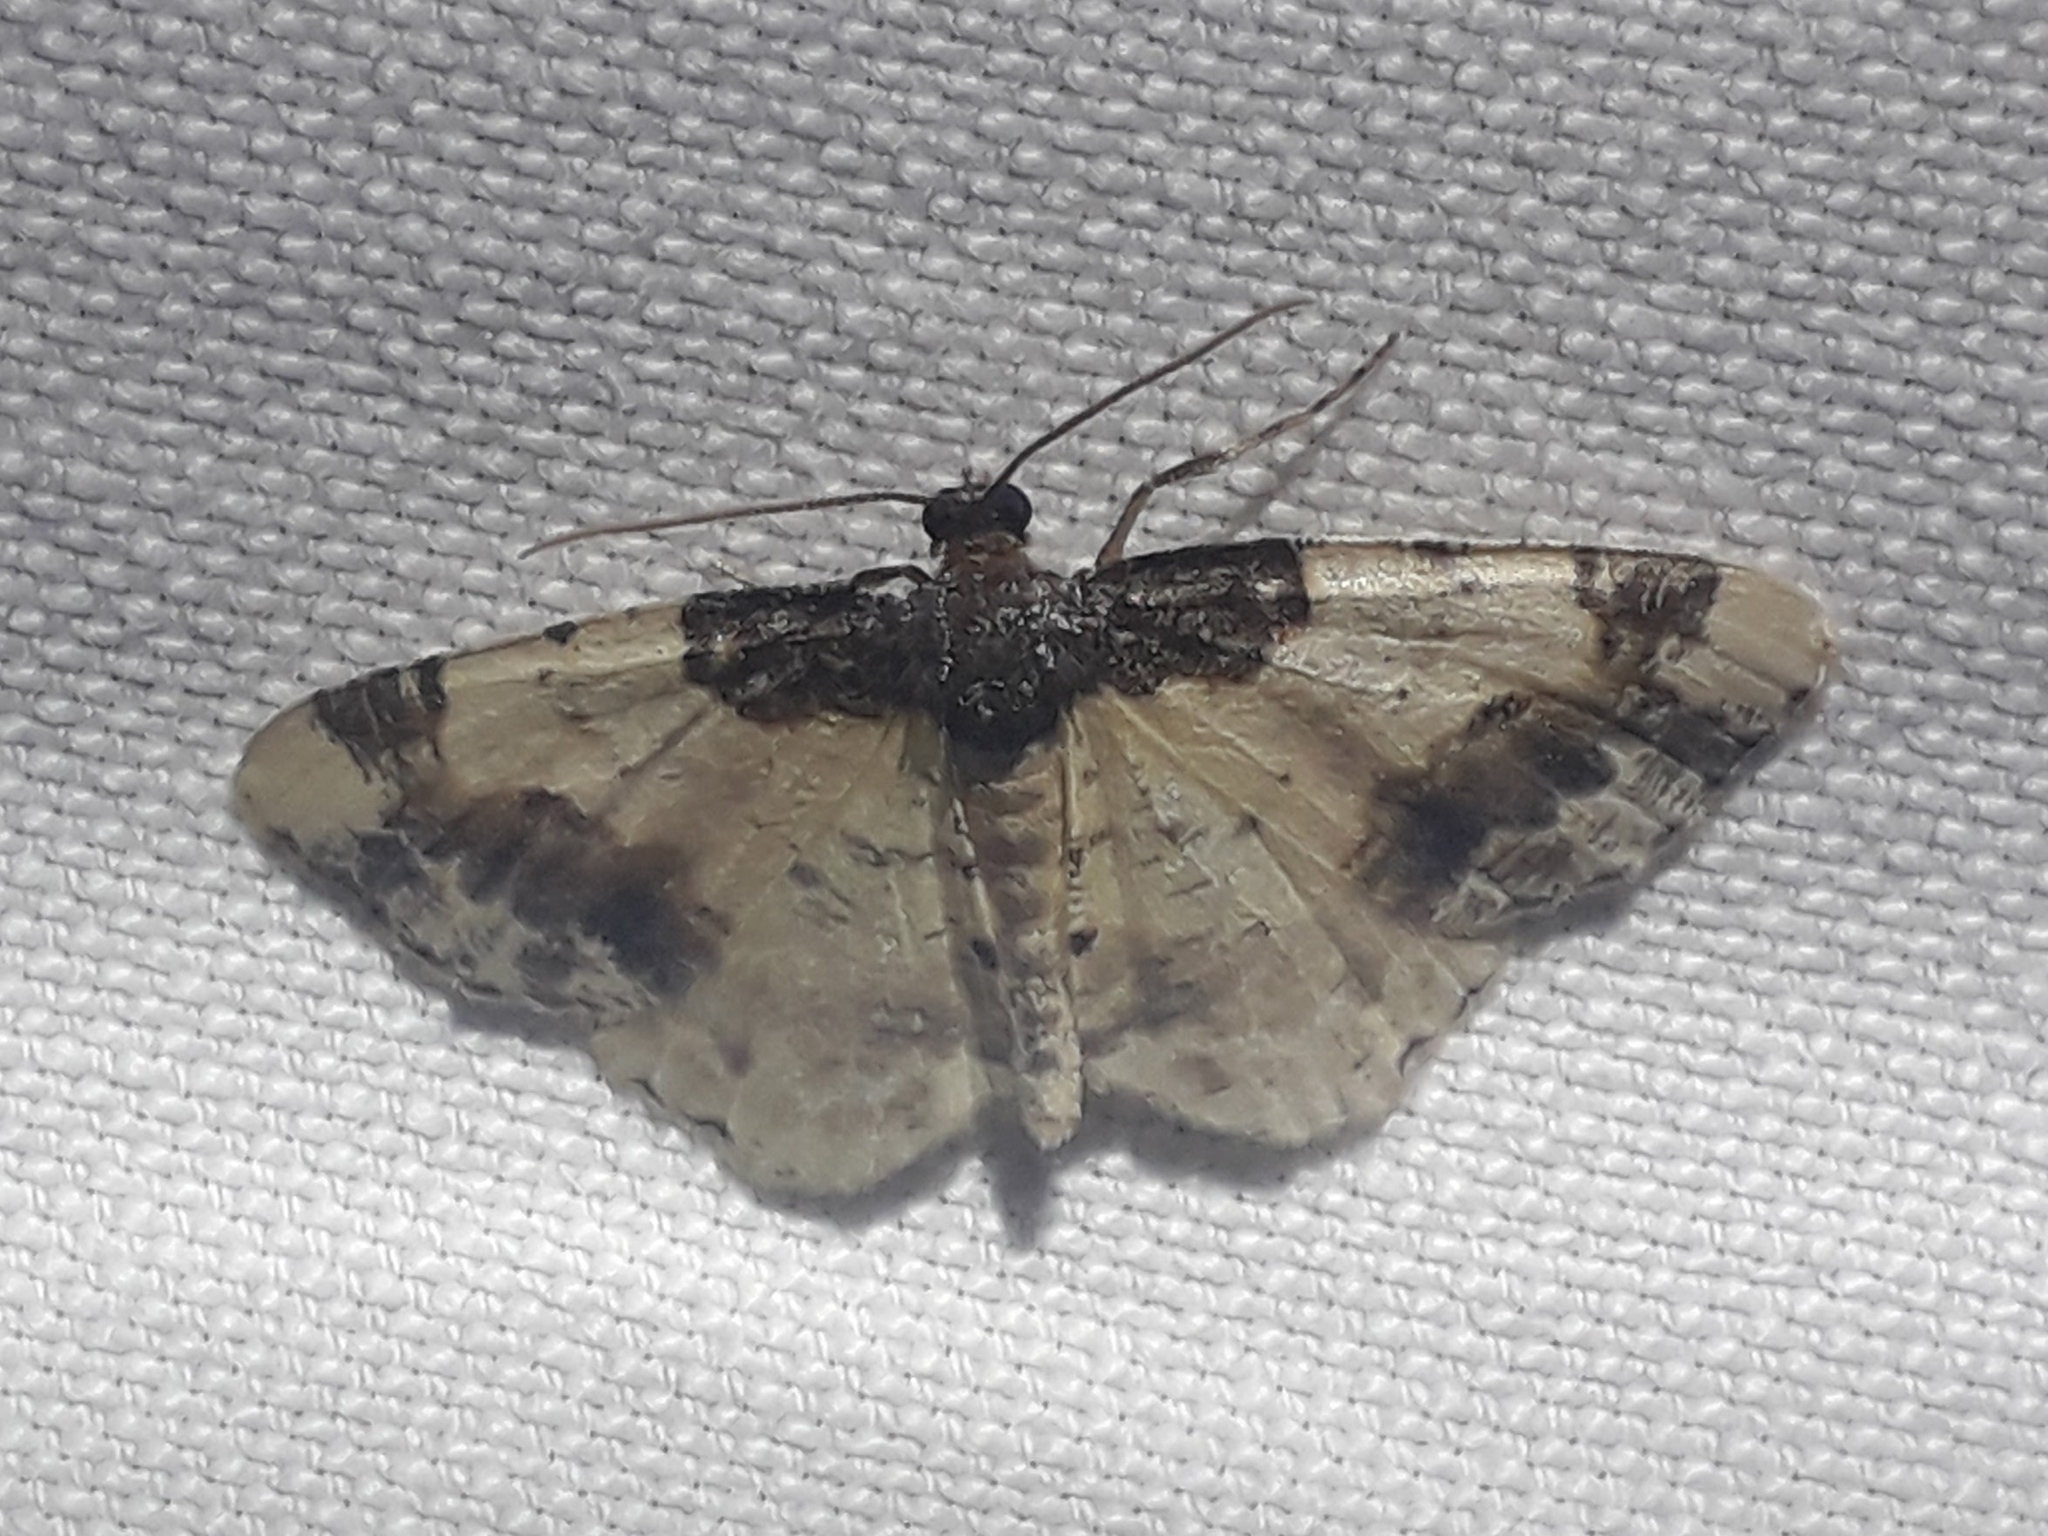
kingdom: Animalia
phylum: Arthropoda
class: Insecta
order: Lepidoptera
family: Geometridae
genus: Ligdia
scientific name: Ligdia adustata
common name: Scorched carpet
